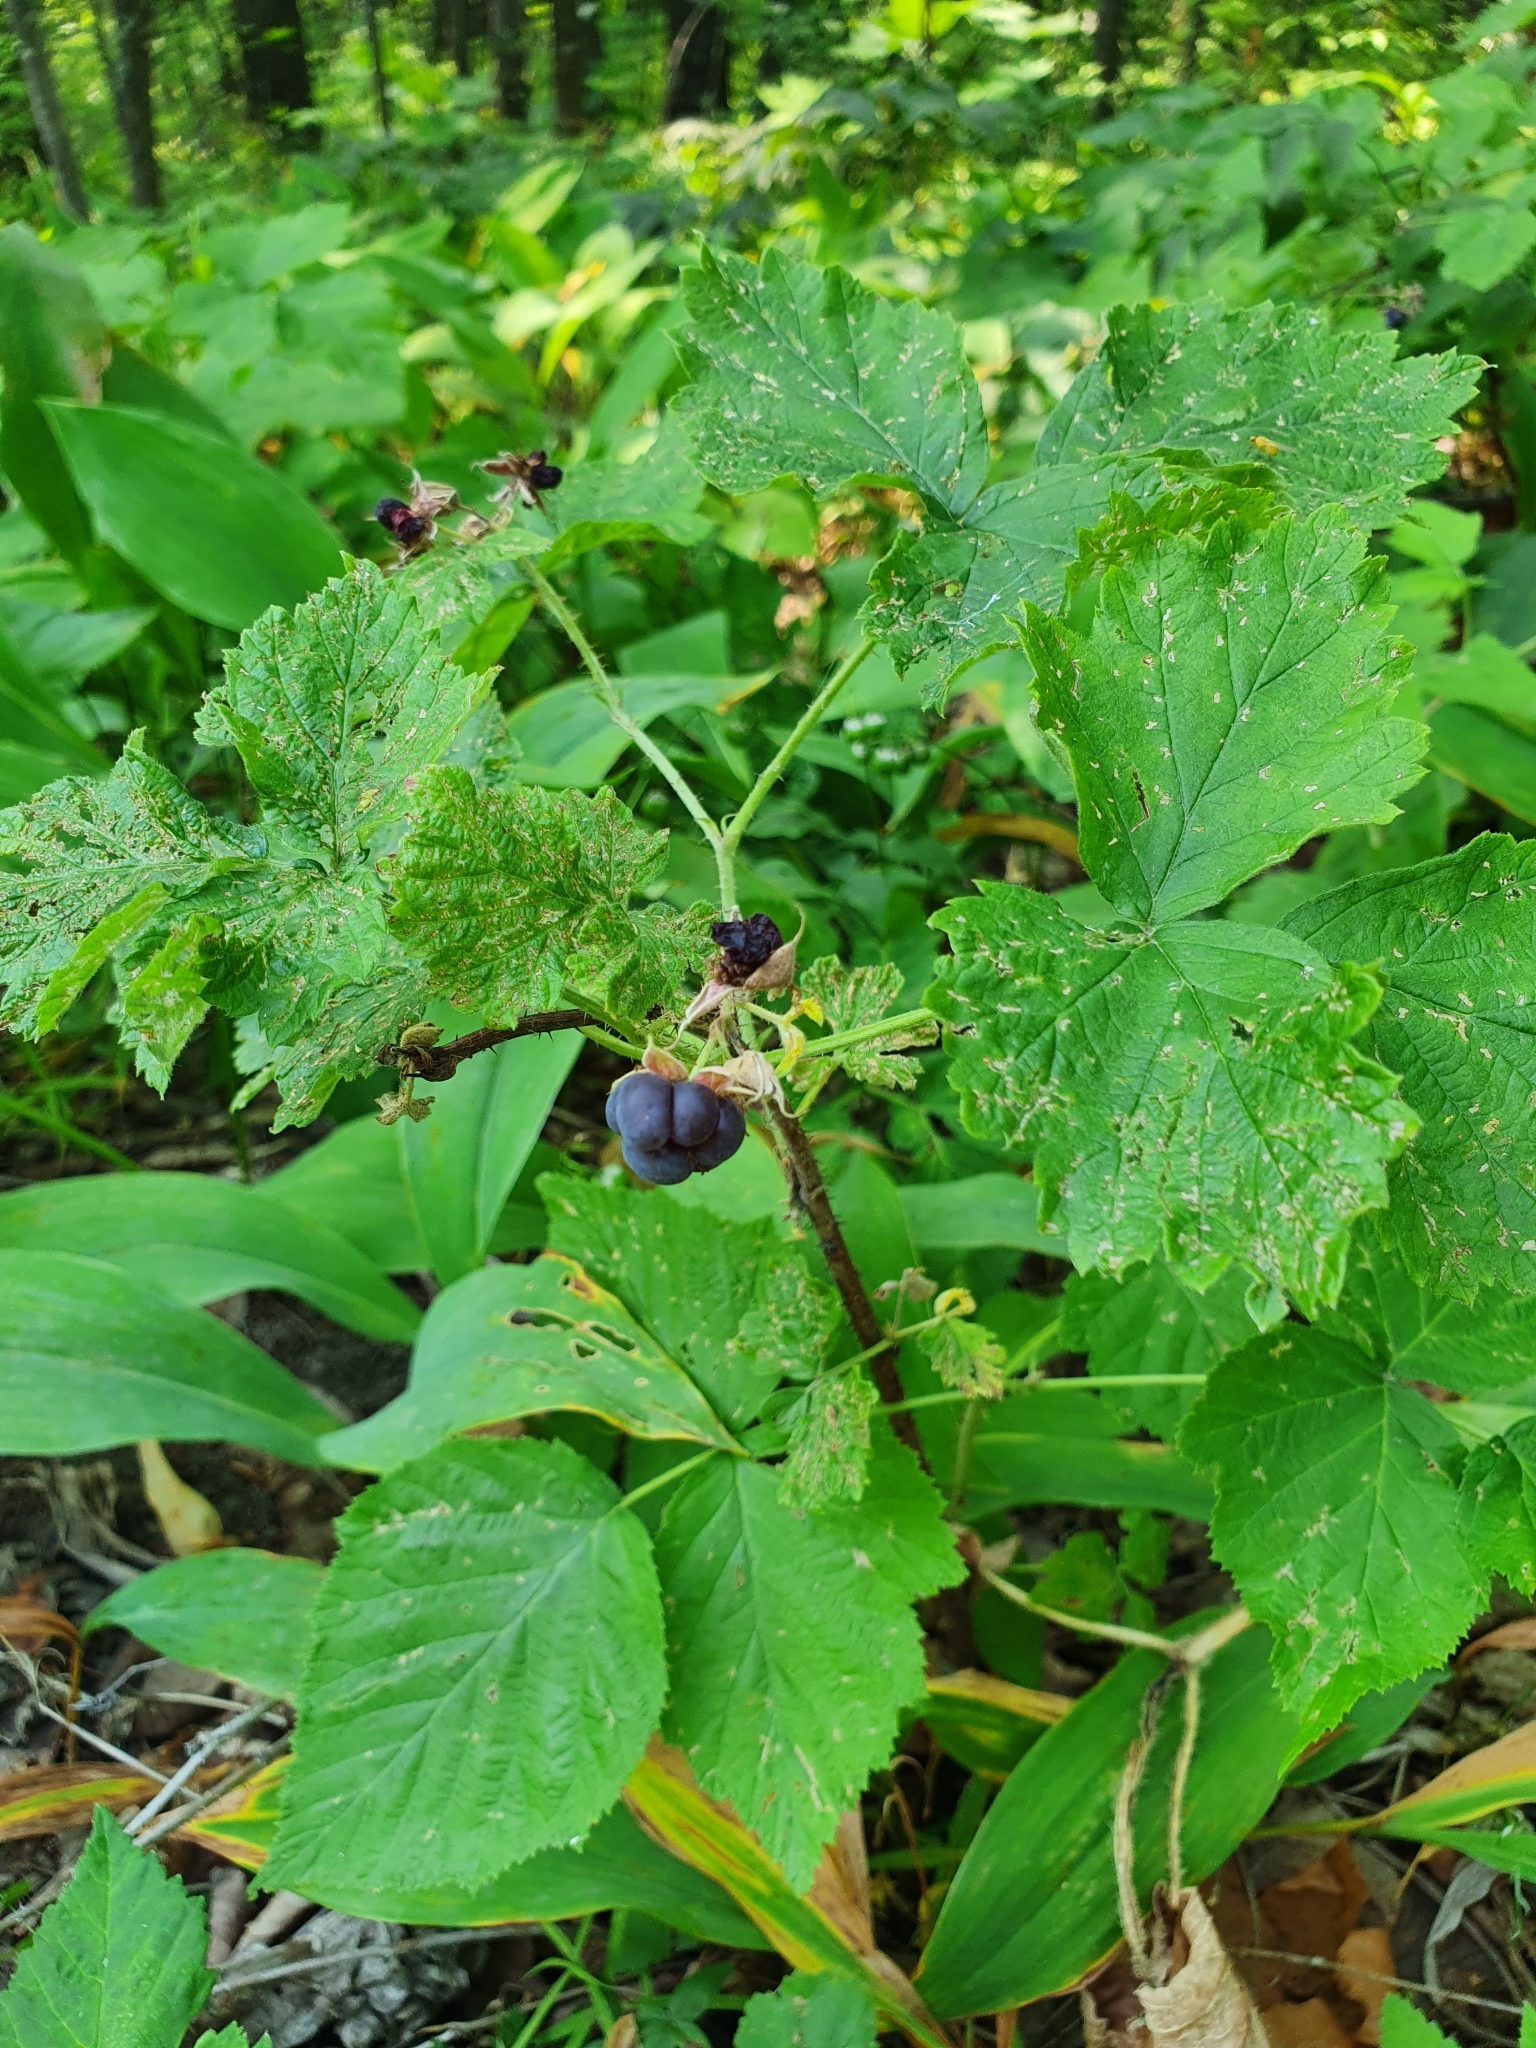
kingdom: Plantae
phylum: Tracheophyta
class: Magnoliopsida
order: Rosales
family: Rosaceae
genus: Rubus
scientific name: Rubus caesius
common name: Dewberry
